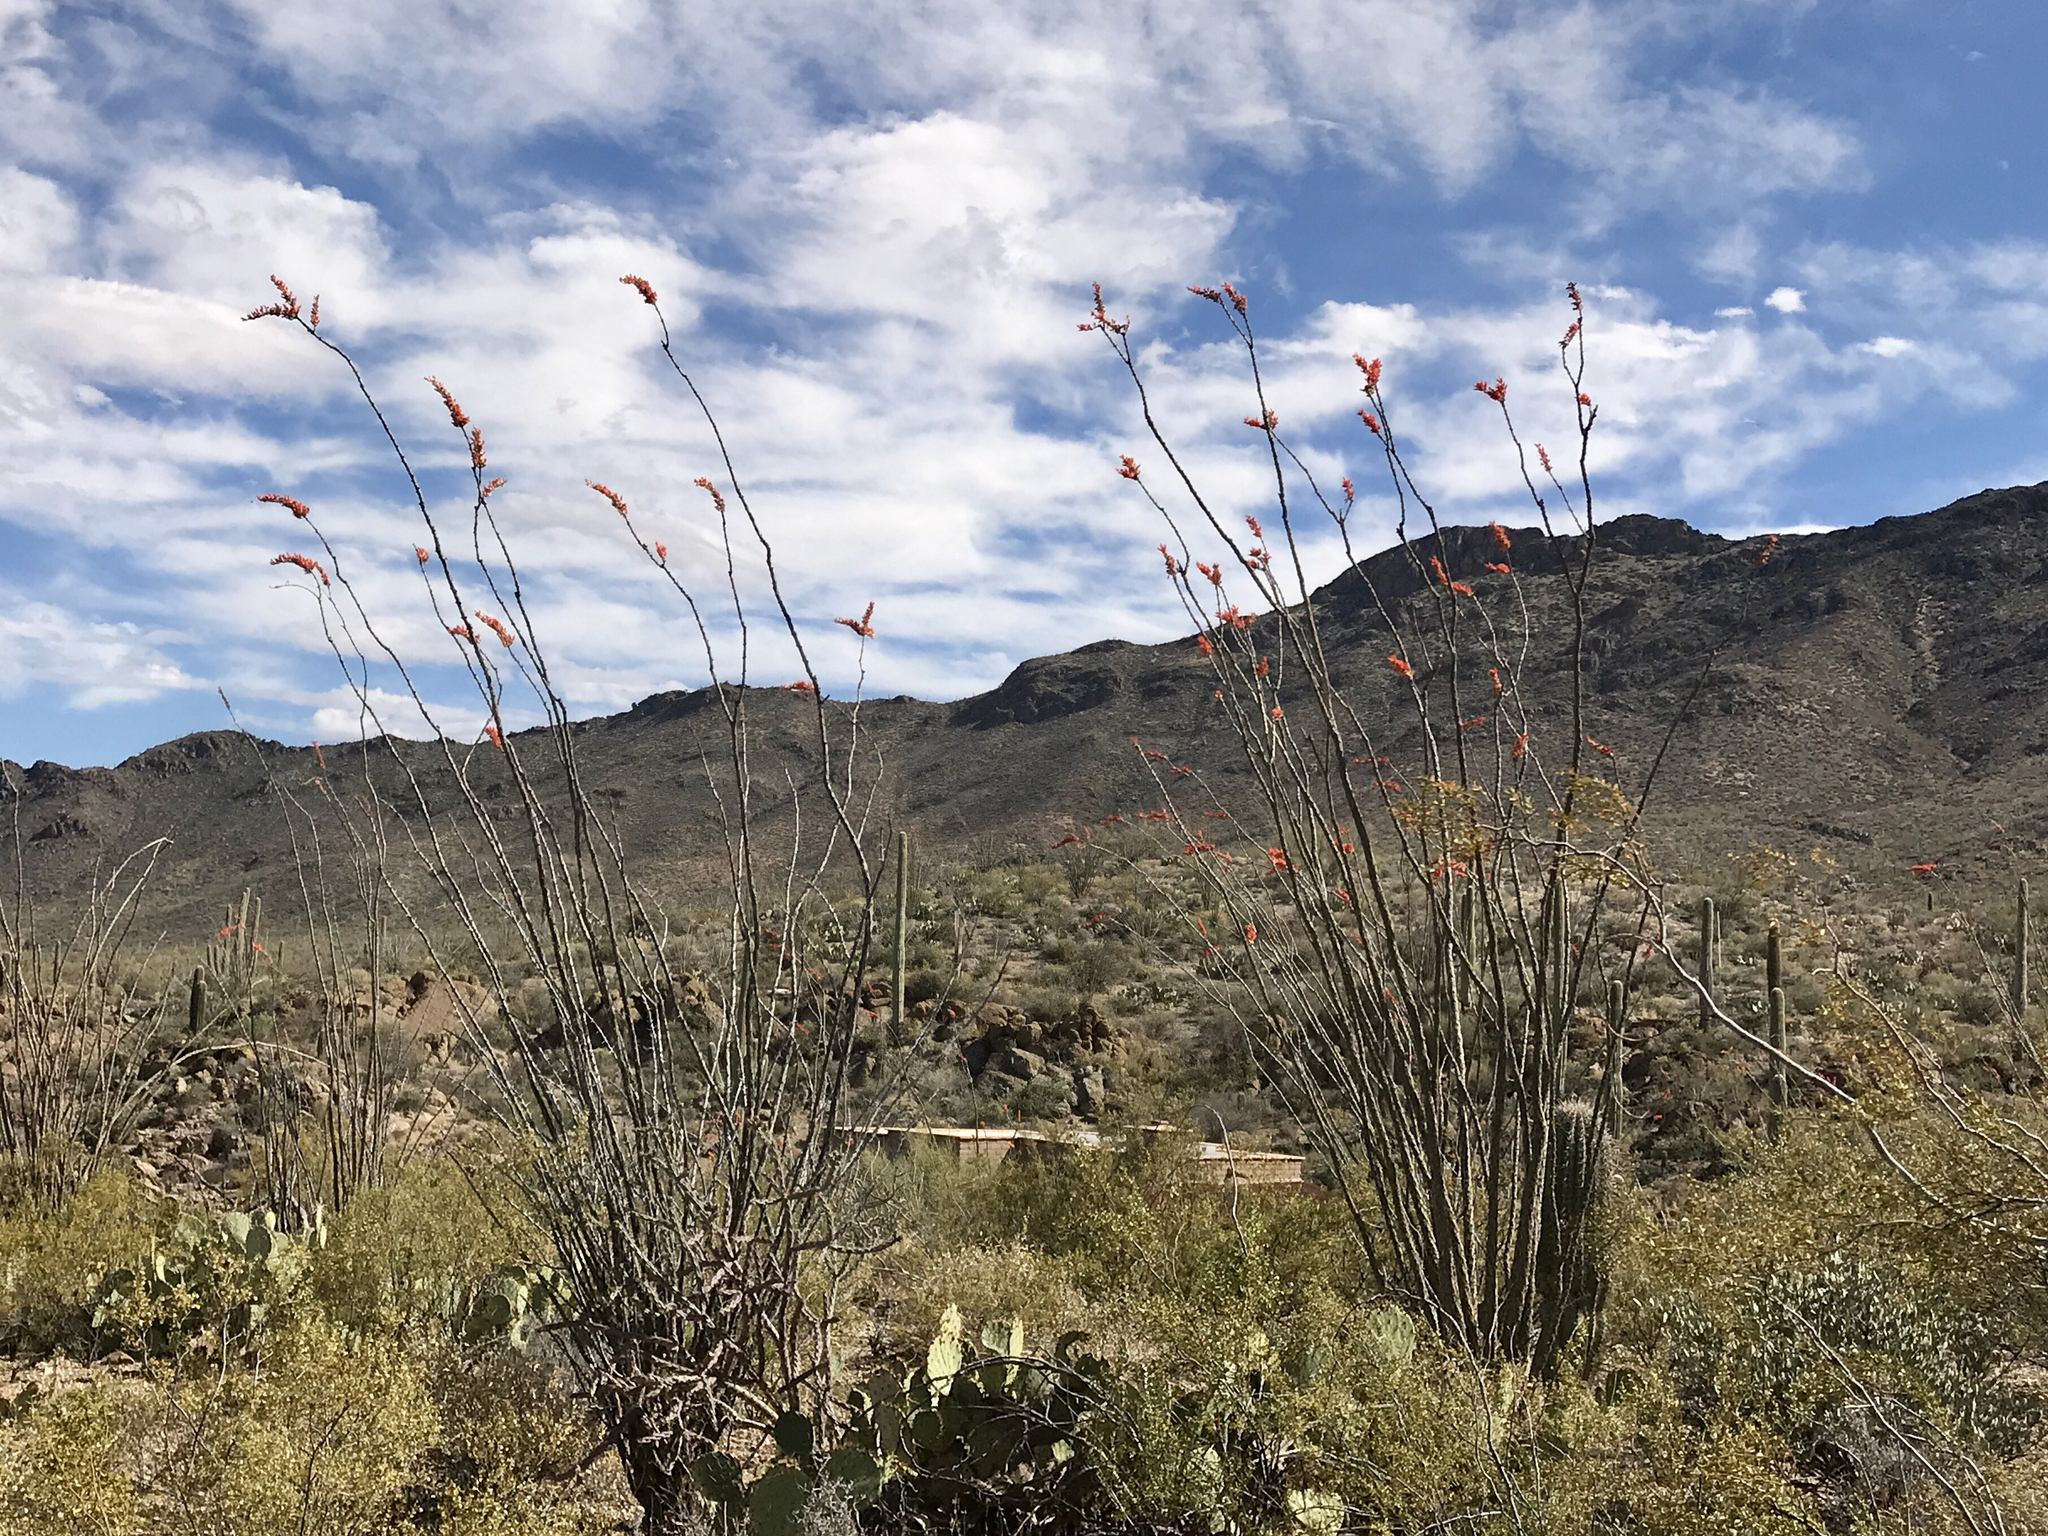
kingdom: Plantae
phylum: Tracheophyta
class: Magnoliopsida
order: Ericales
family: Fouquieriaceae
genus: Fouquieria
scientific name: Fouquieria splendens
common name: Vine-cactus
